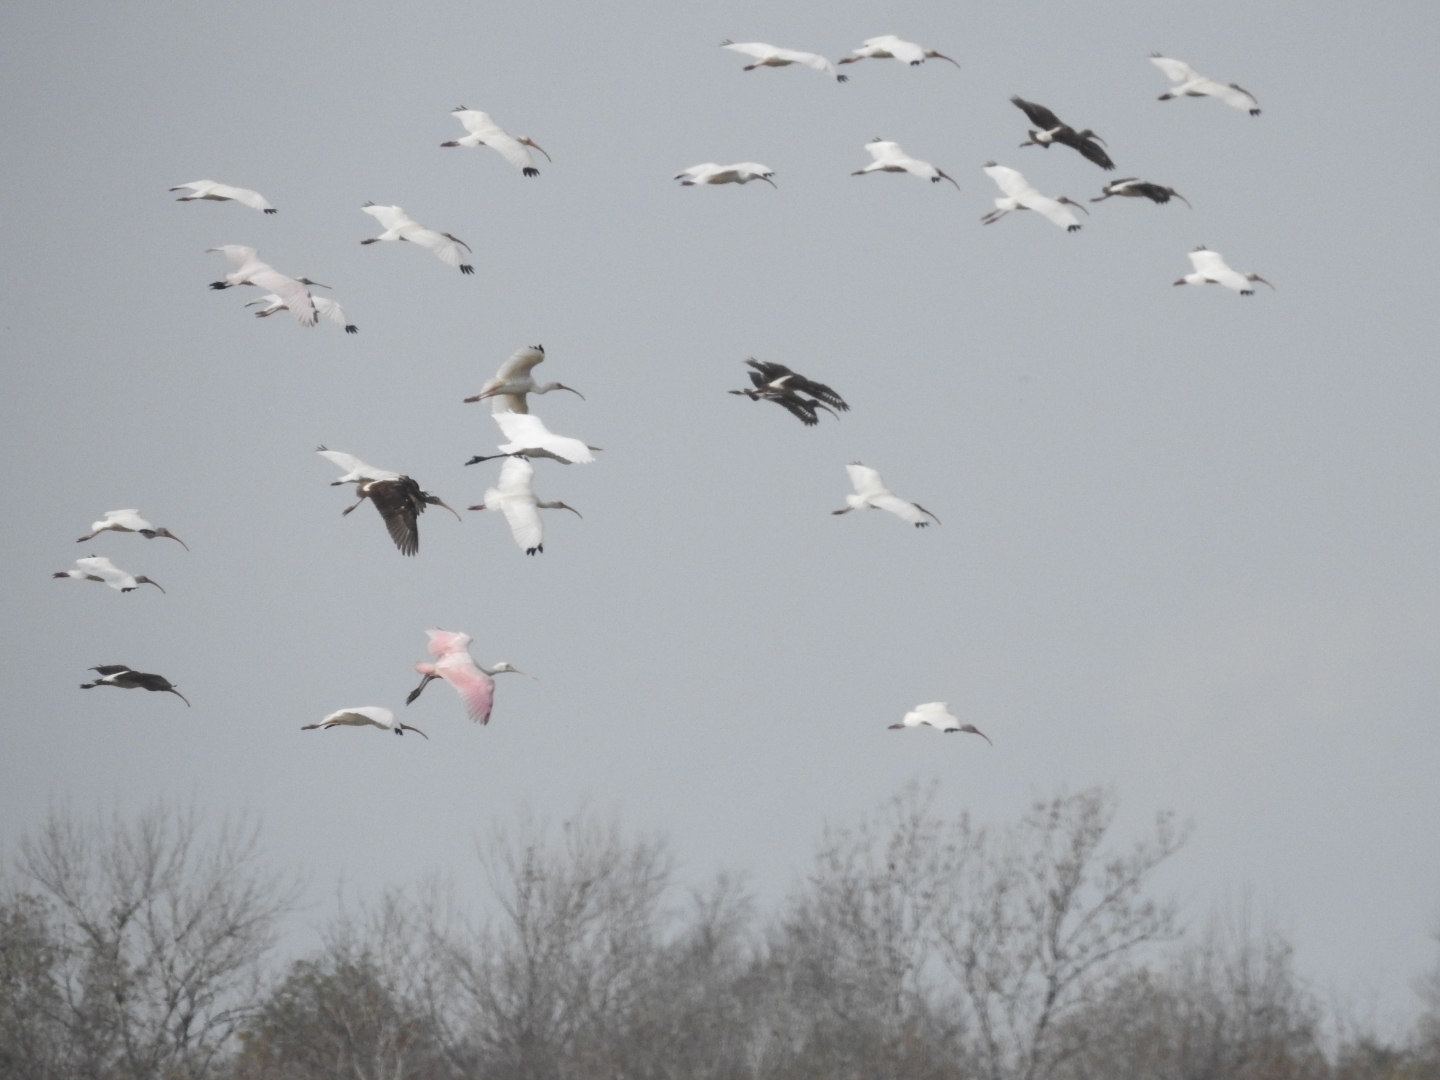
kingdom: Animalia
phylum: Chordata
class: Aves
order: Pelecaniformes
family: Threskiornithidae
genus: Platalea
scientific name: Platalea ajaja
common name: Roseate spoonbill
